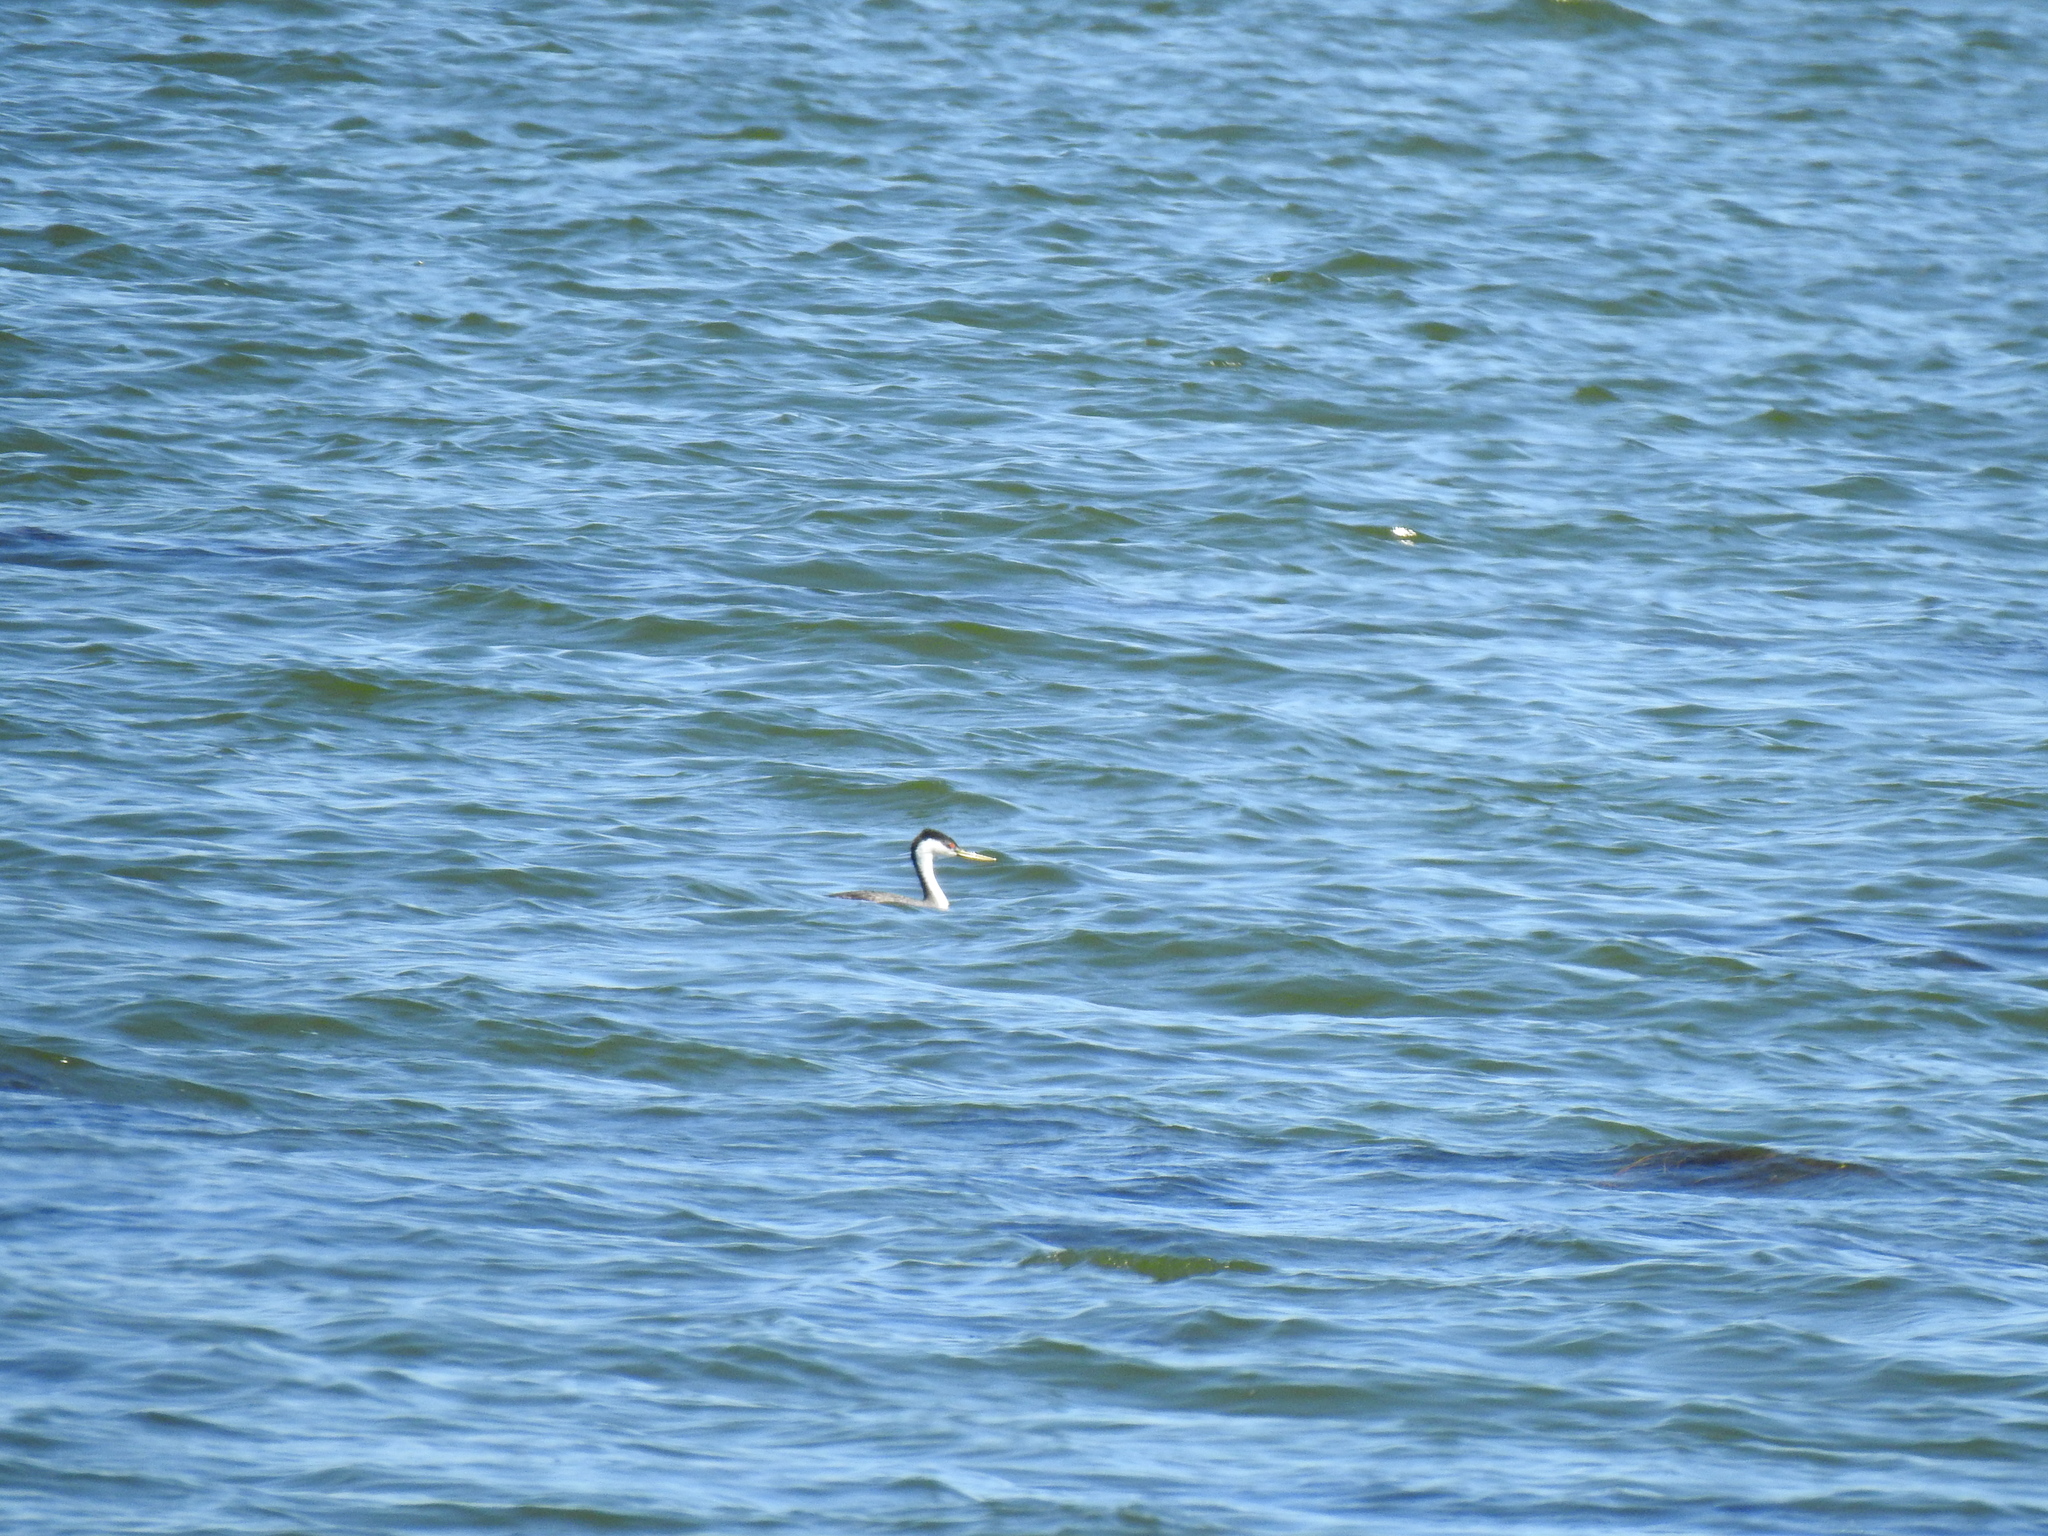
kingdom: Animalia
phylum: Chordata
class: Aves
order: Podicipediformes
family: Podicipedidae
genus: Aechmophorus
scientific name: Aechmophorus occidentalis
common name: Western grebe
